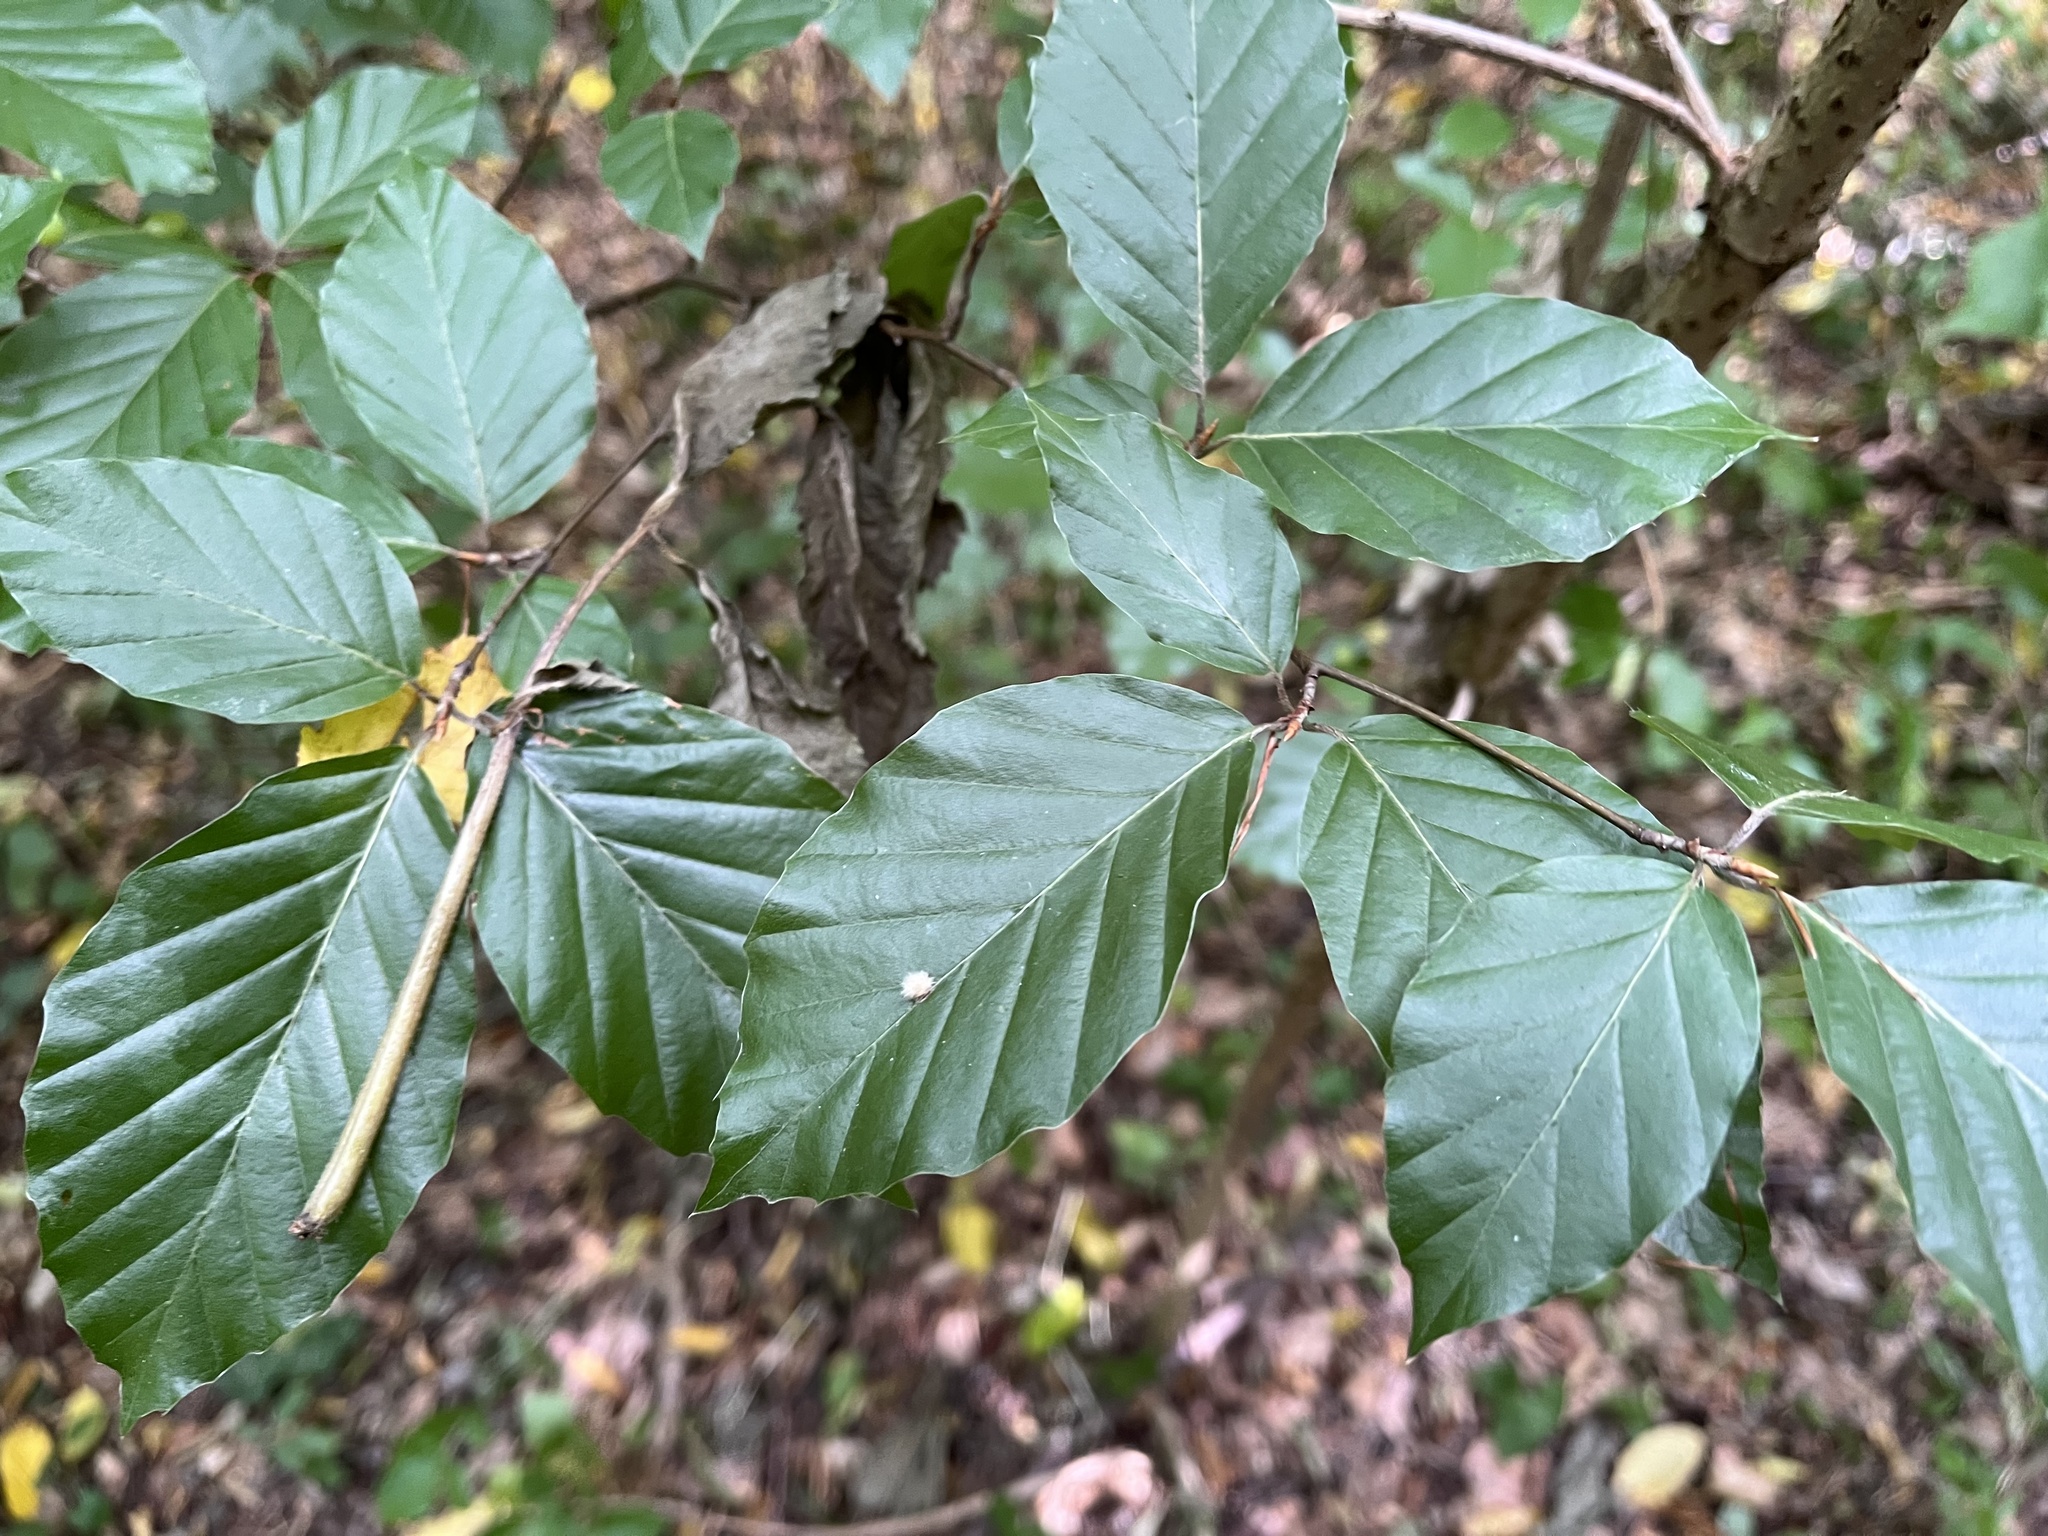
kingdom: Animalia
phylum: Arthropoda
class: Insecta
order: Diptera
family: Cecidomyiidae
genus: Hartigiola
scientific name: Hartigiola annulipes
